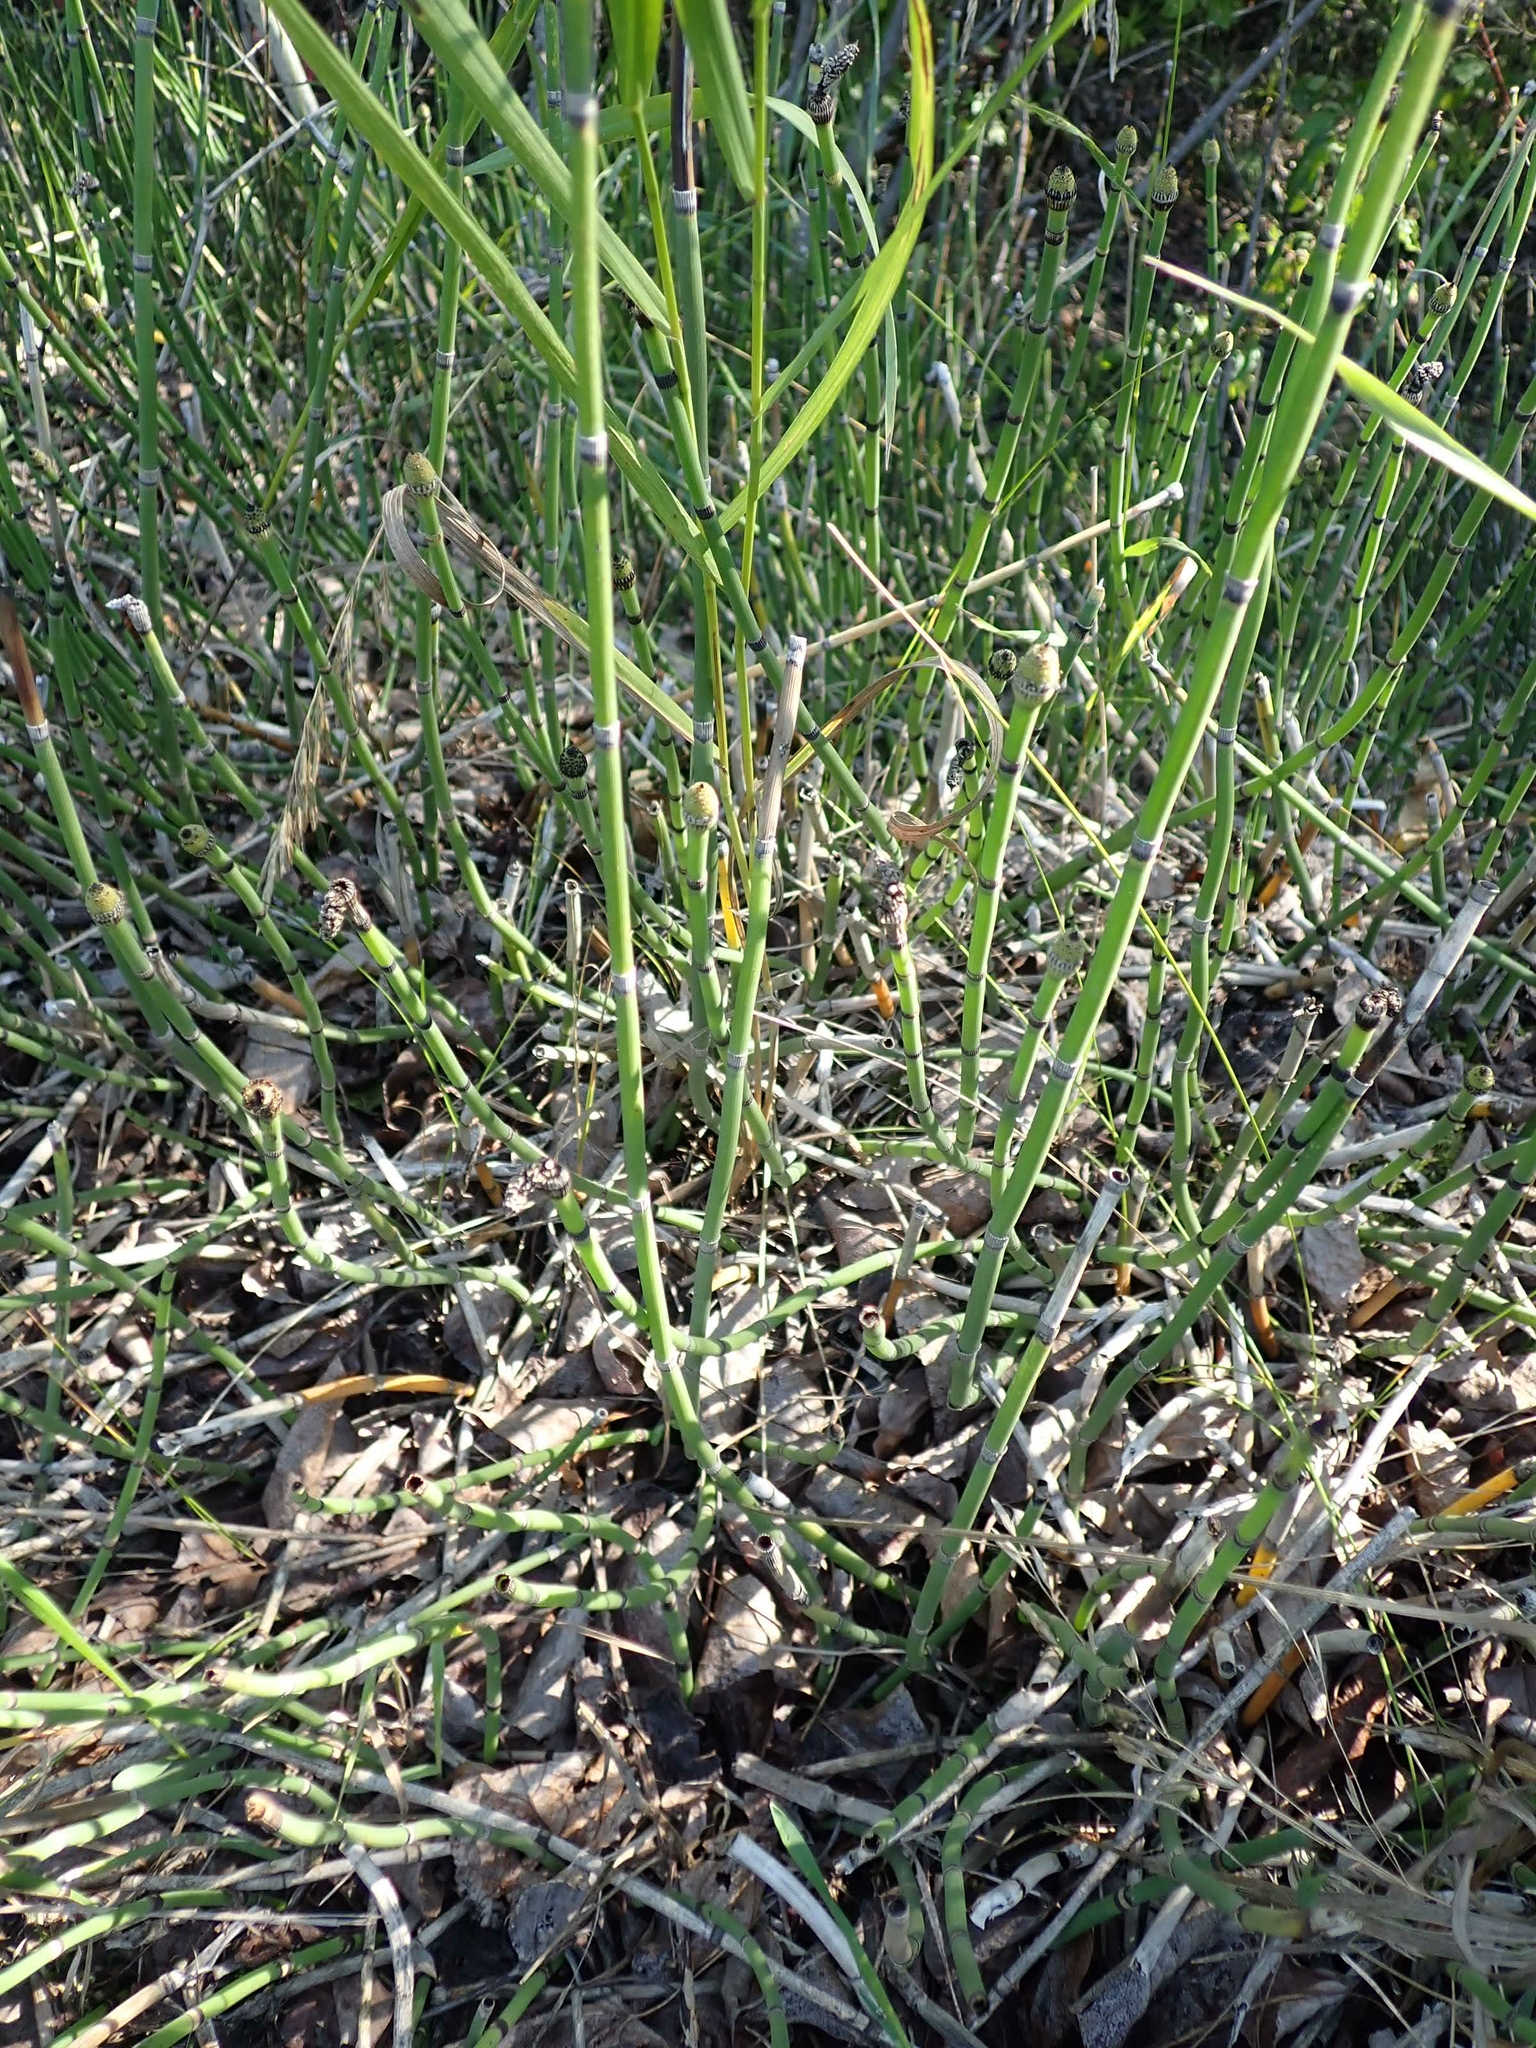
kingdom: Plantae
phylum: Tracheophyta
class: Polypodiopsida
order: Equisetales
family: Equisetaceae
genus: Equisetum
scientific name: Equisetum praealtum
